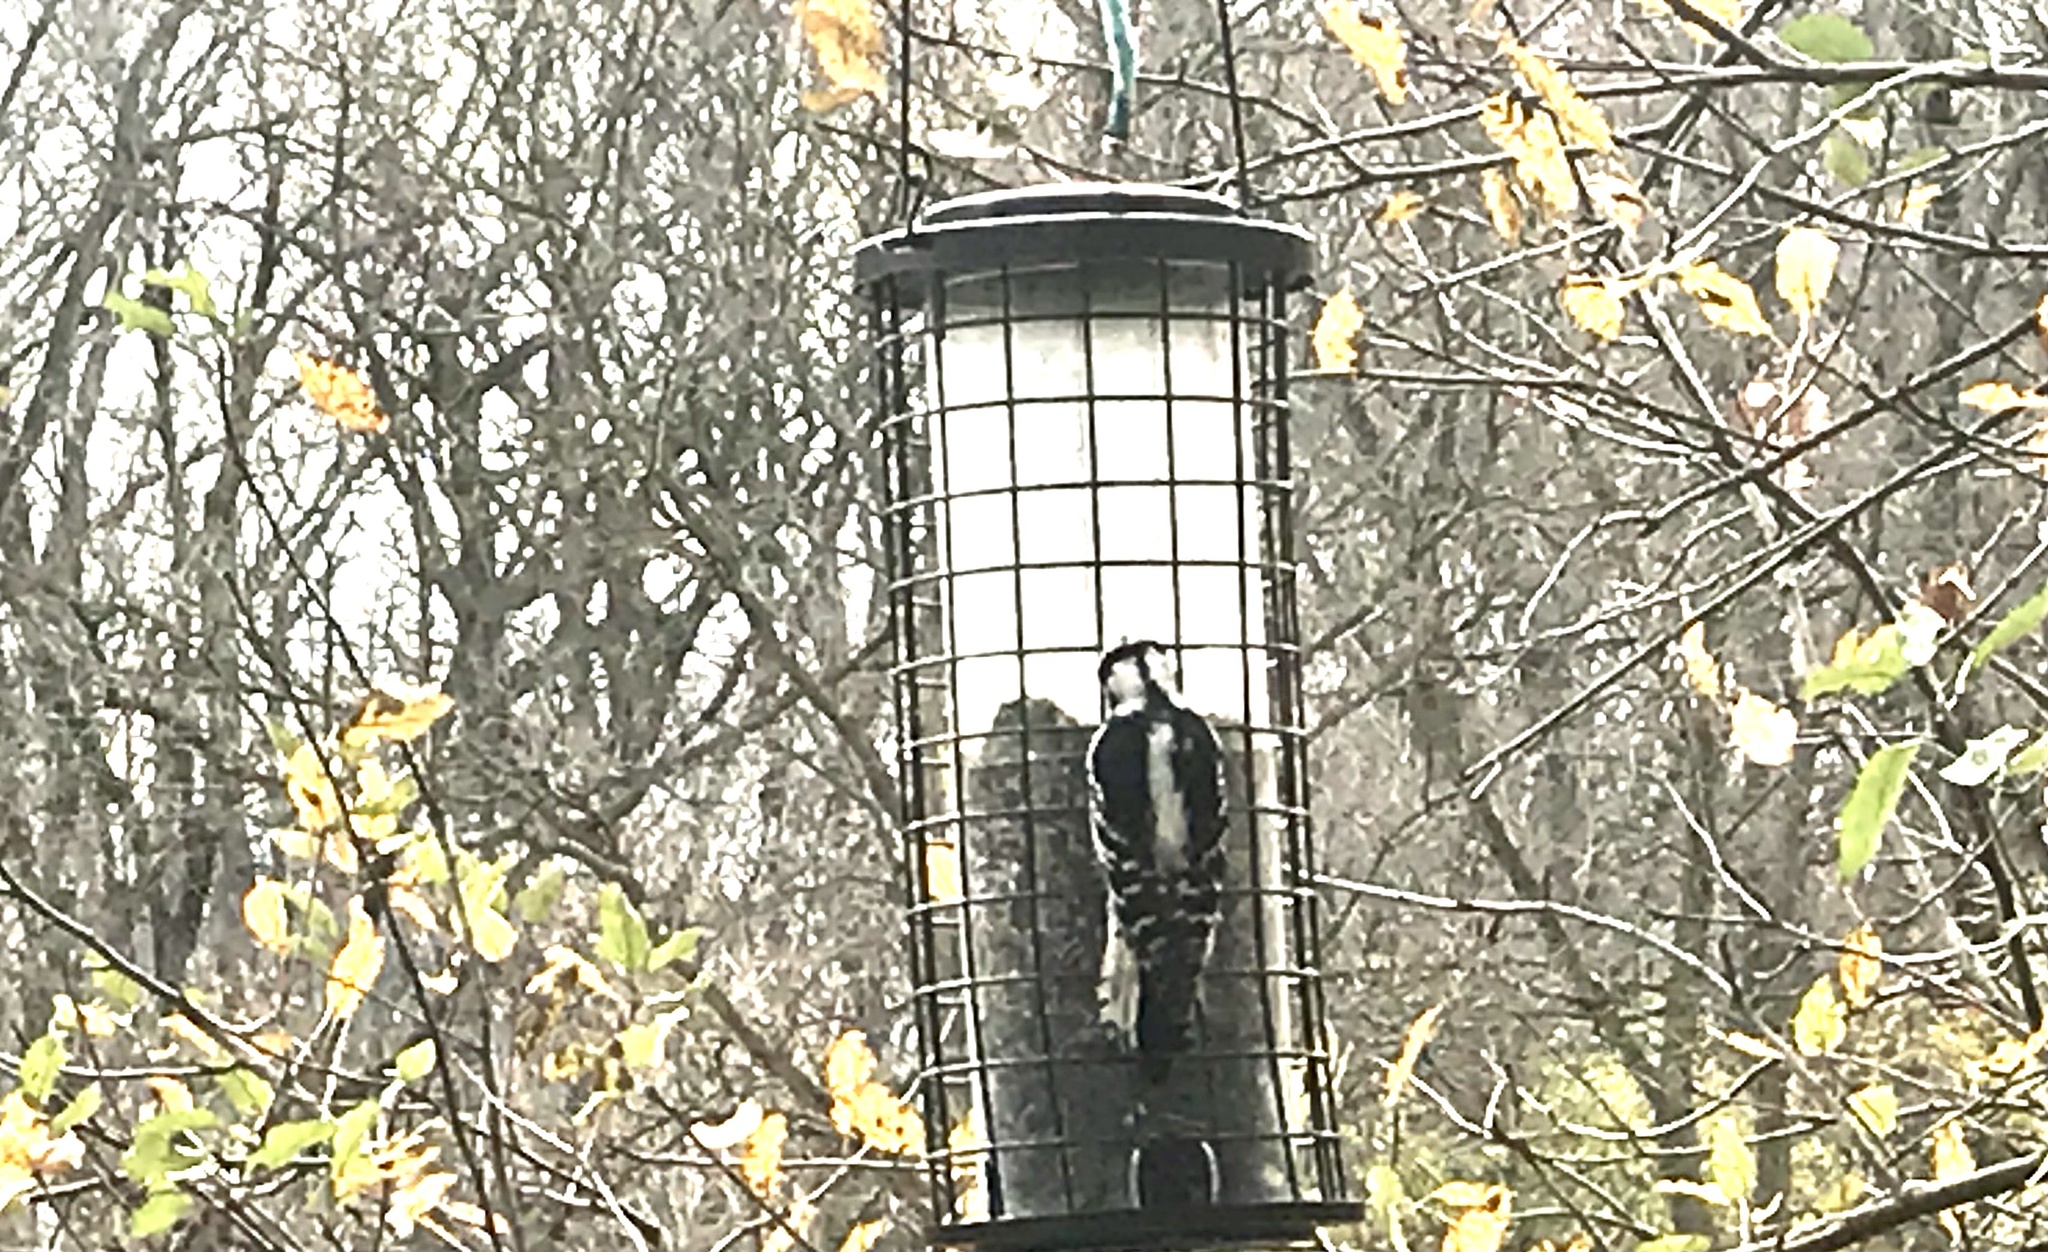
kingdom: Animalia
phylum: Chordata
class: Aves
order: Piciformes
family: Picidae
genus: Dryobates
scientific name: Dryobates pubescens
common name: Downy woodpecker
